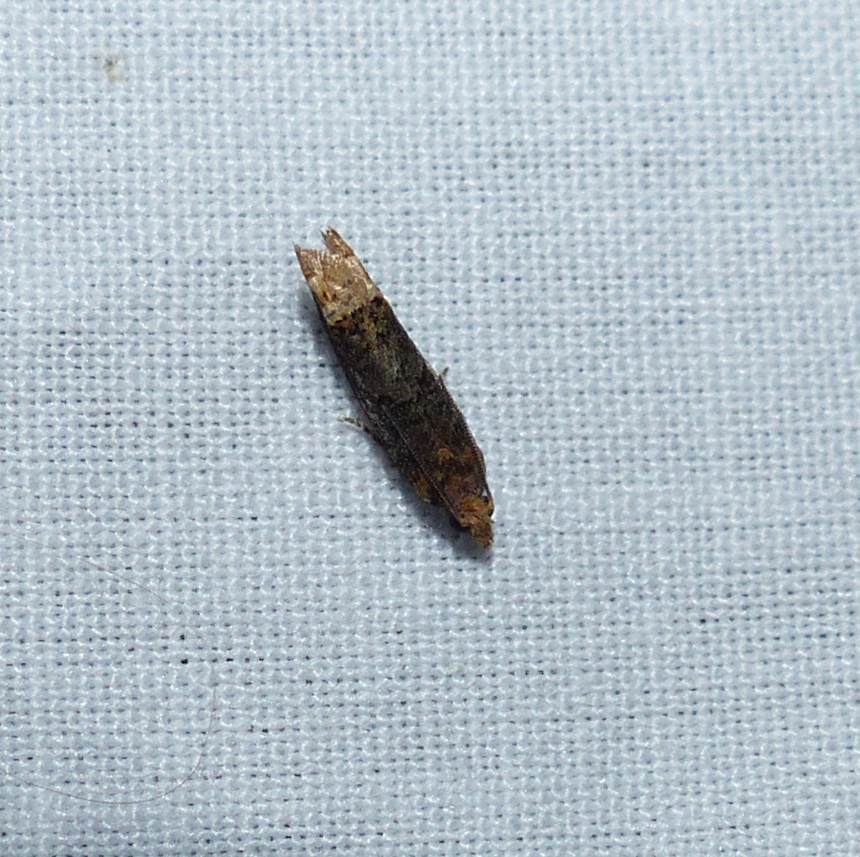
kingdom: Animalia
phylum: Arthropoda
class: Insecta
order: Lepidoptera
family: Tortricidae
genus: Eucosma
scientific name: Eucosma ochroterminana
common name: Buff-tipped eucosma moth
